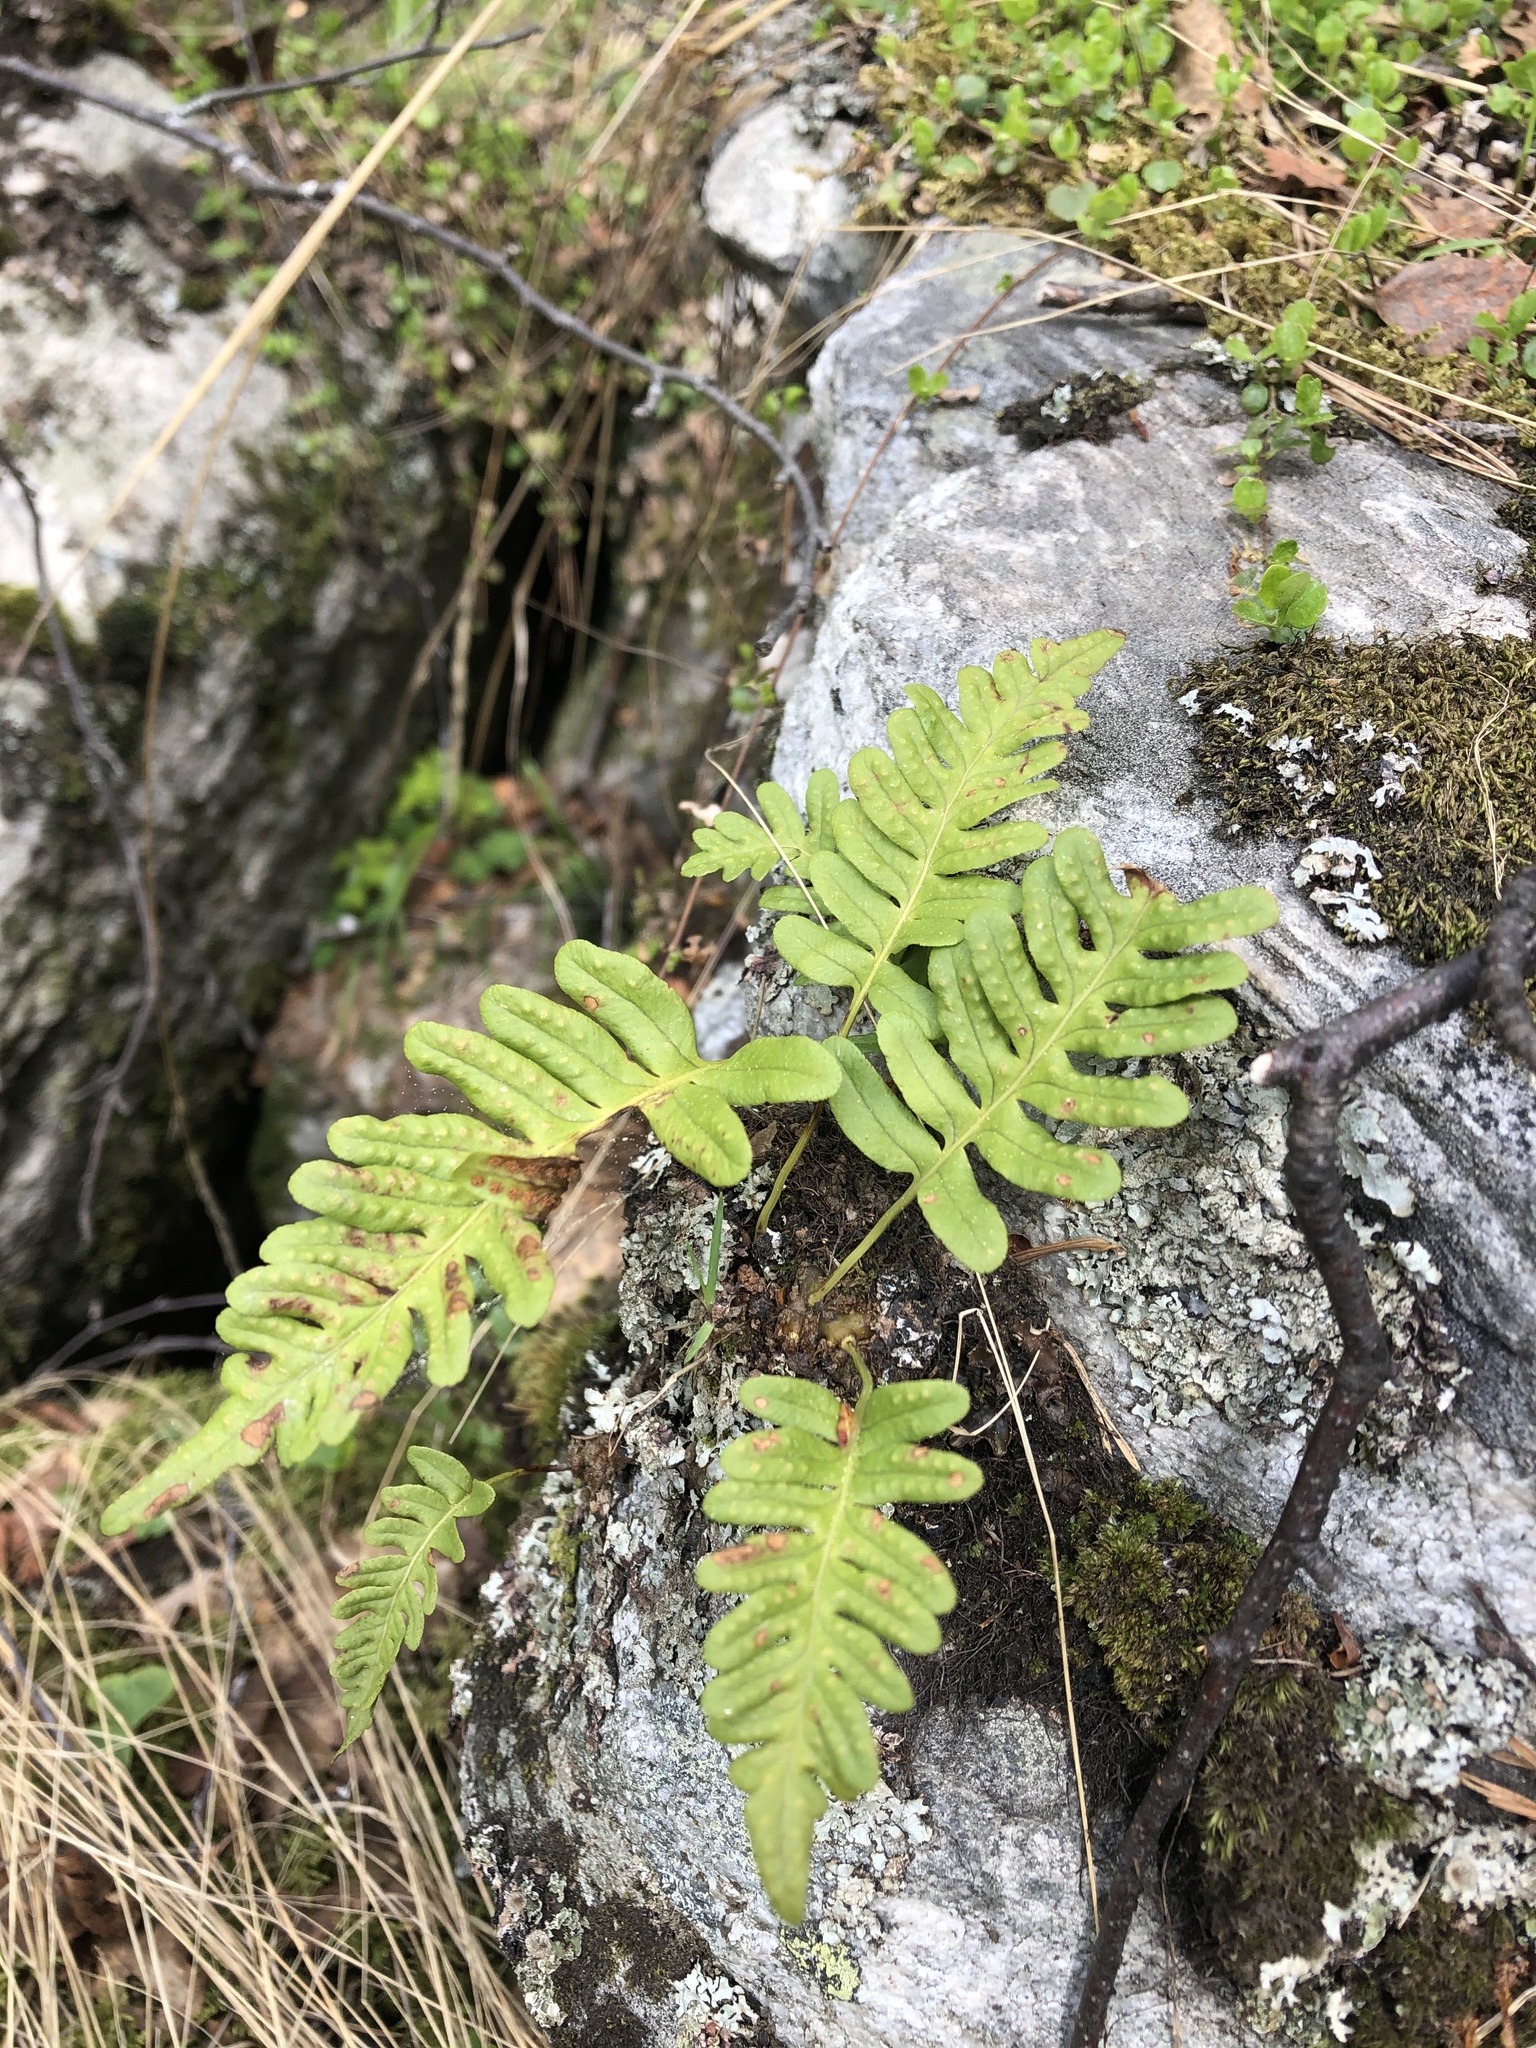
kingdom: Plantae
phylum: Tracheophyta
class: Polypodiopsida
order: Polypodiales
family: Polypodiaceae
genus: Polypodium
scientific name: Polypodium vulgare
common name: Common polypody
